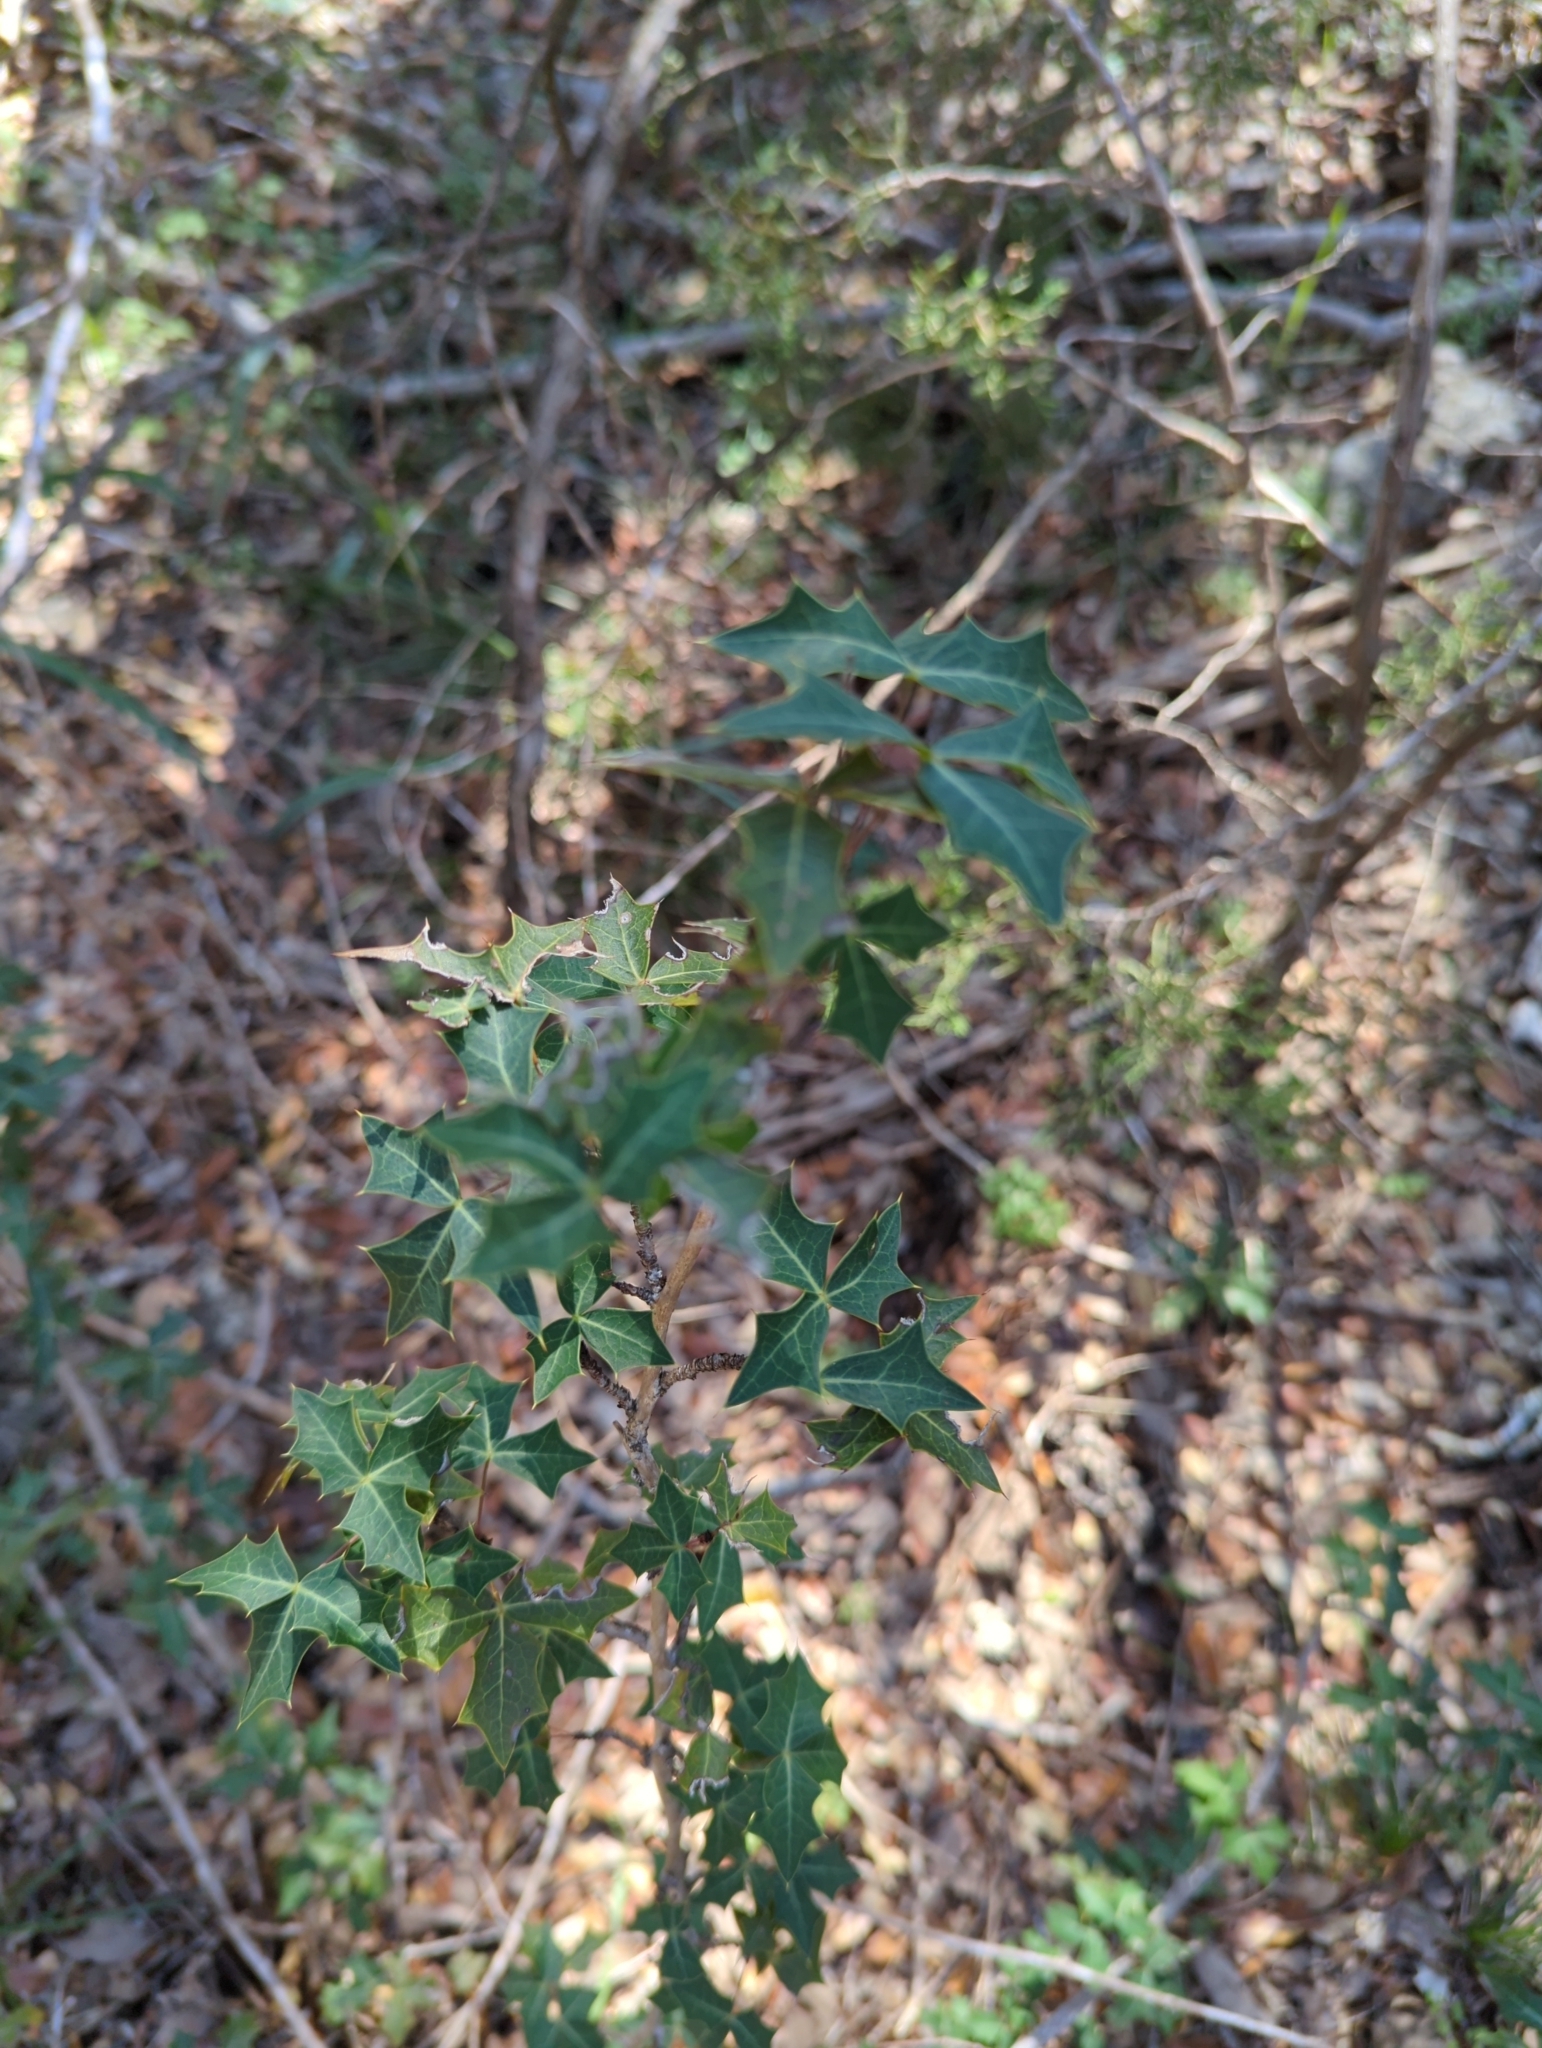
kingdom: Plantae
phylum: Tracheophyta
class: Magnoliopsida
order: Ranunculales
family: Berberidaceae
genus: Alloberberis
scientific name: Alloberberis trifoliolata
